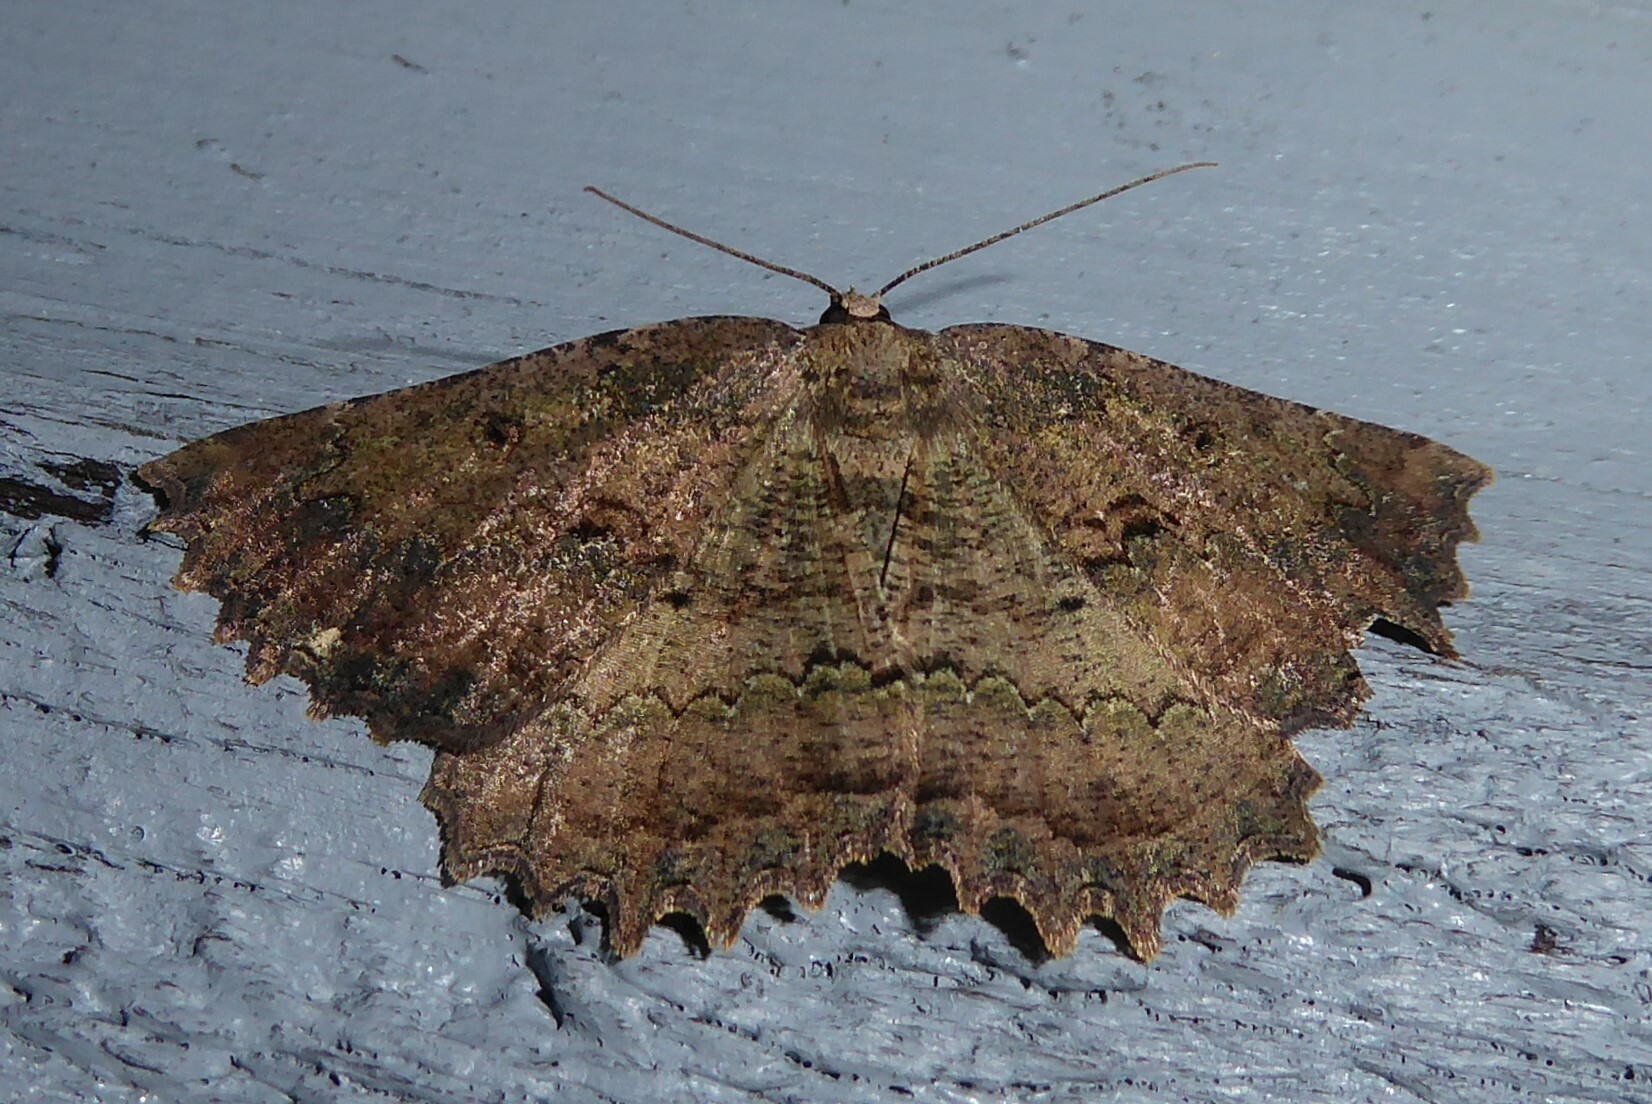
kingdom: Animalia
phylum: Arthropoda
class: Insecta
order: Lepidoptera
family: Geometridae
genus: Gellonia
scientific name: Gellonia pannularia
